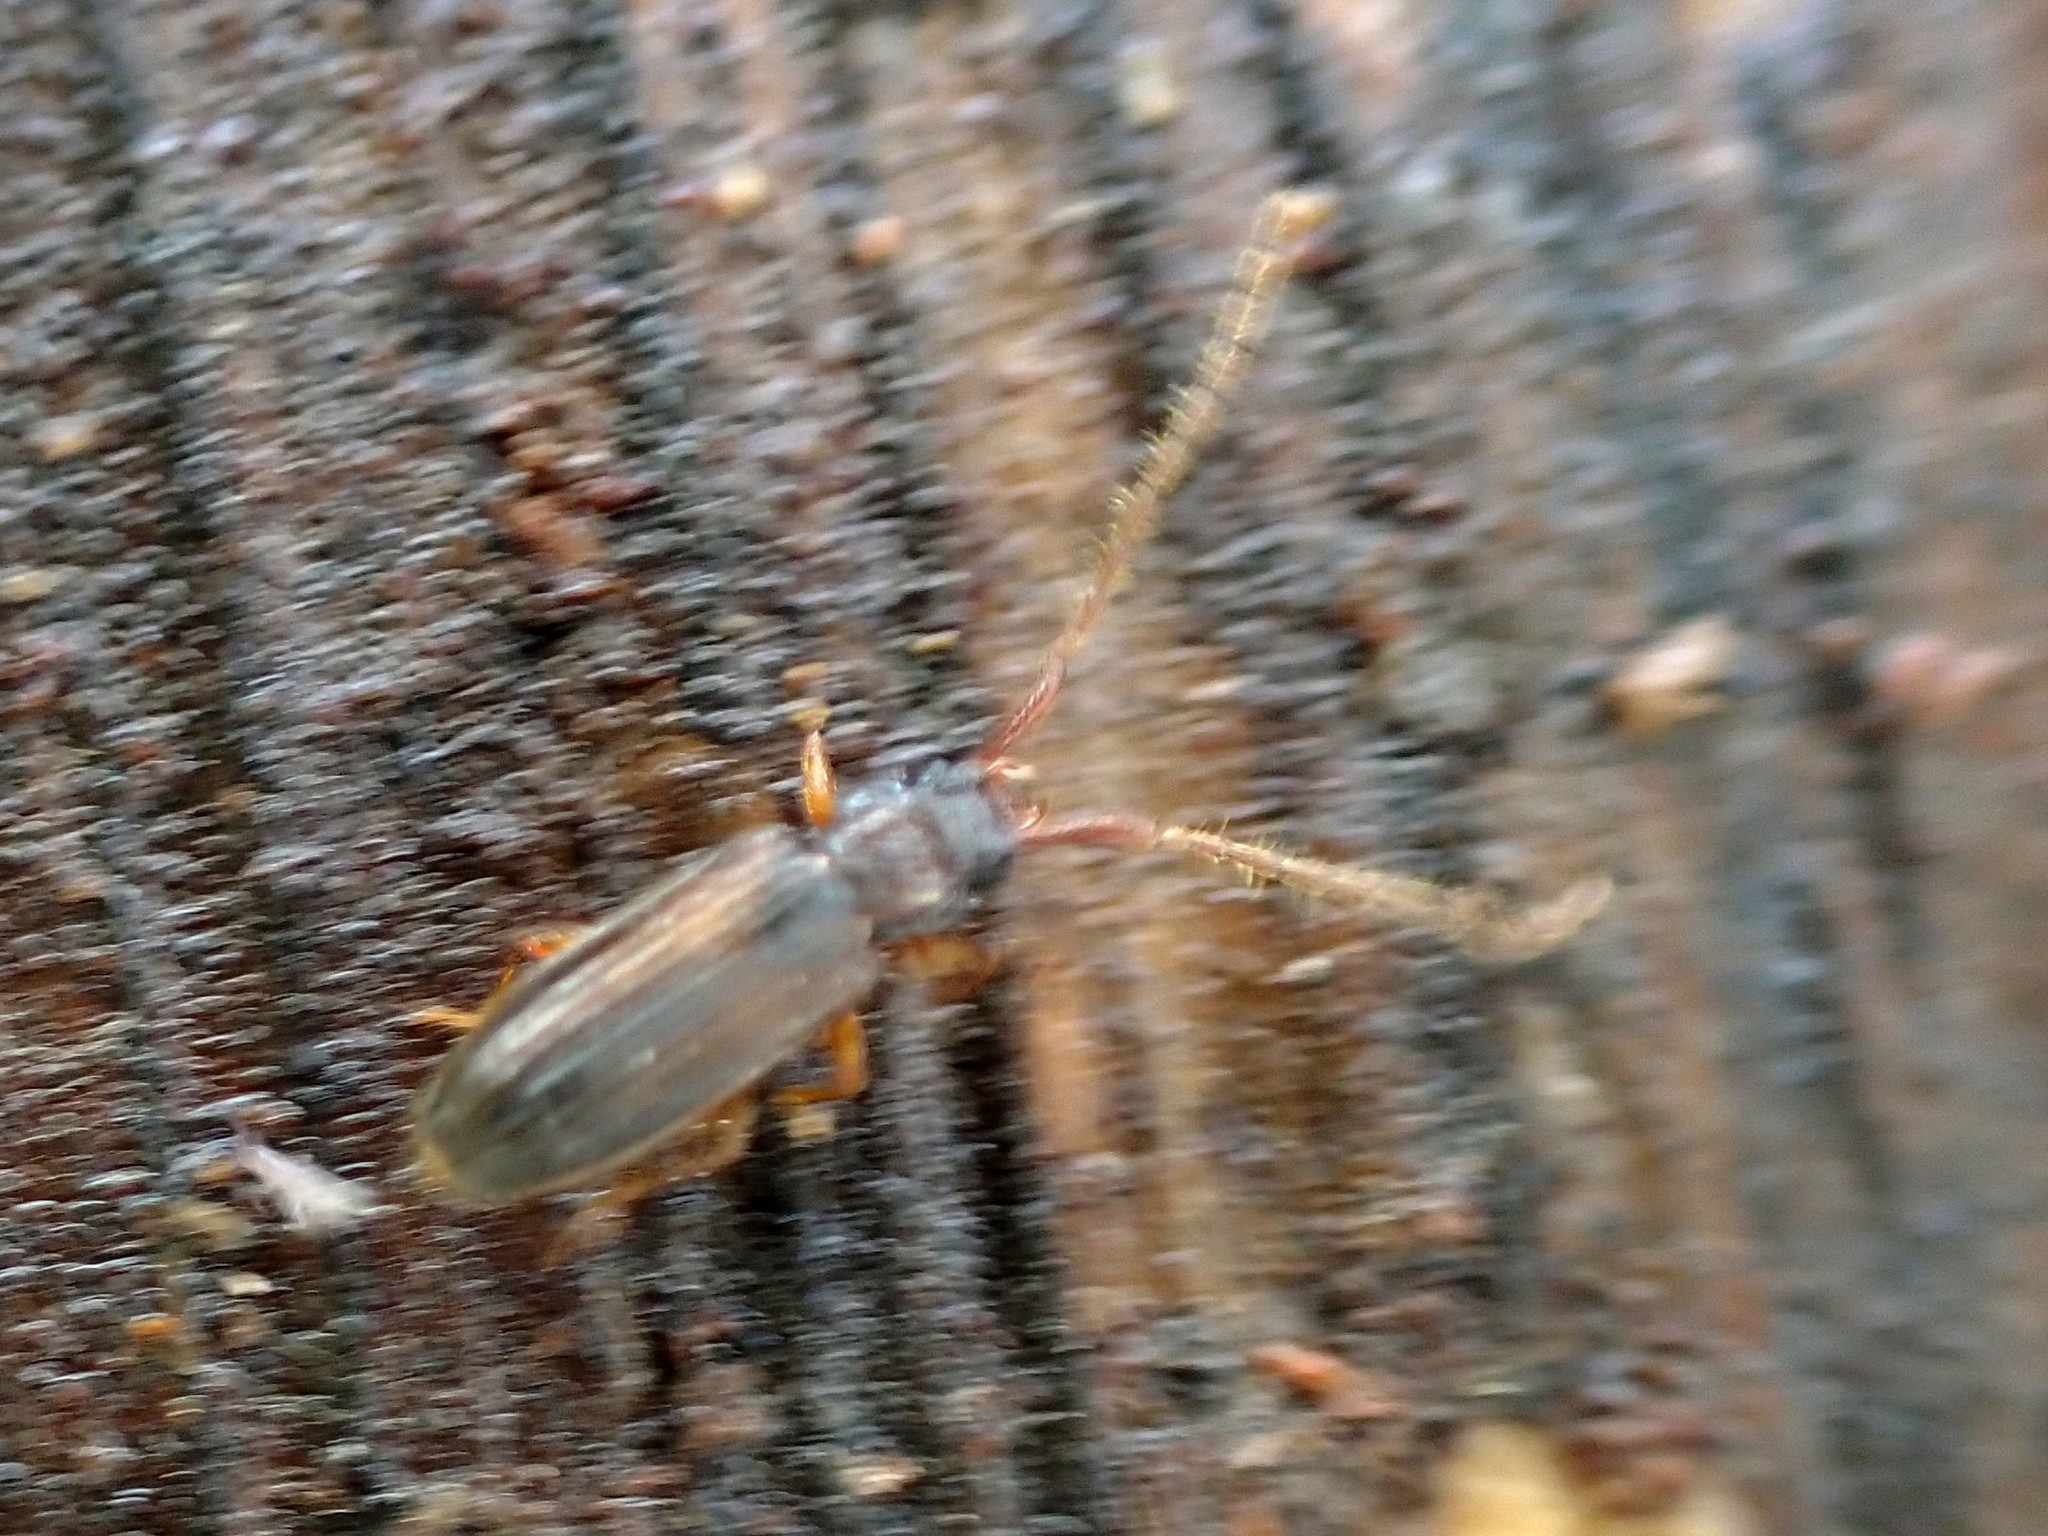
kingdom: Animalia
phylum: Arthropoda
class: Insecta
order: Coleoptera
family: Silvanidae
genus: Uleiota
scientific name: Uleiota planatus
